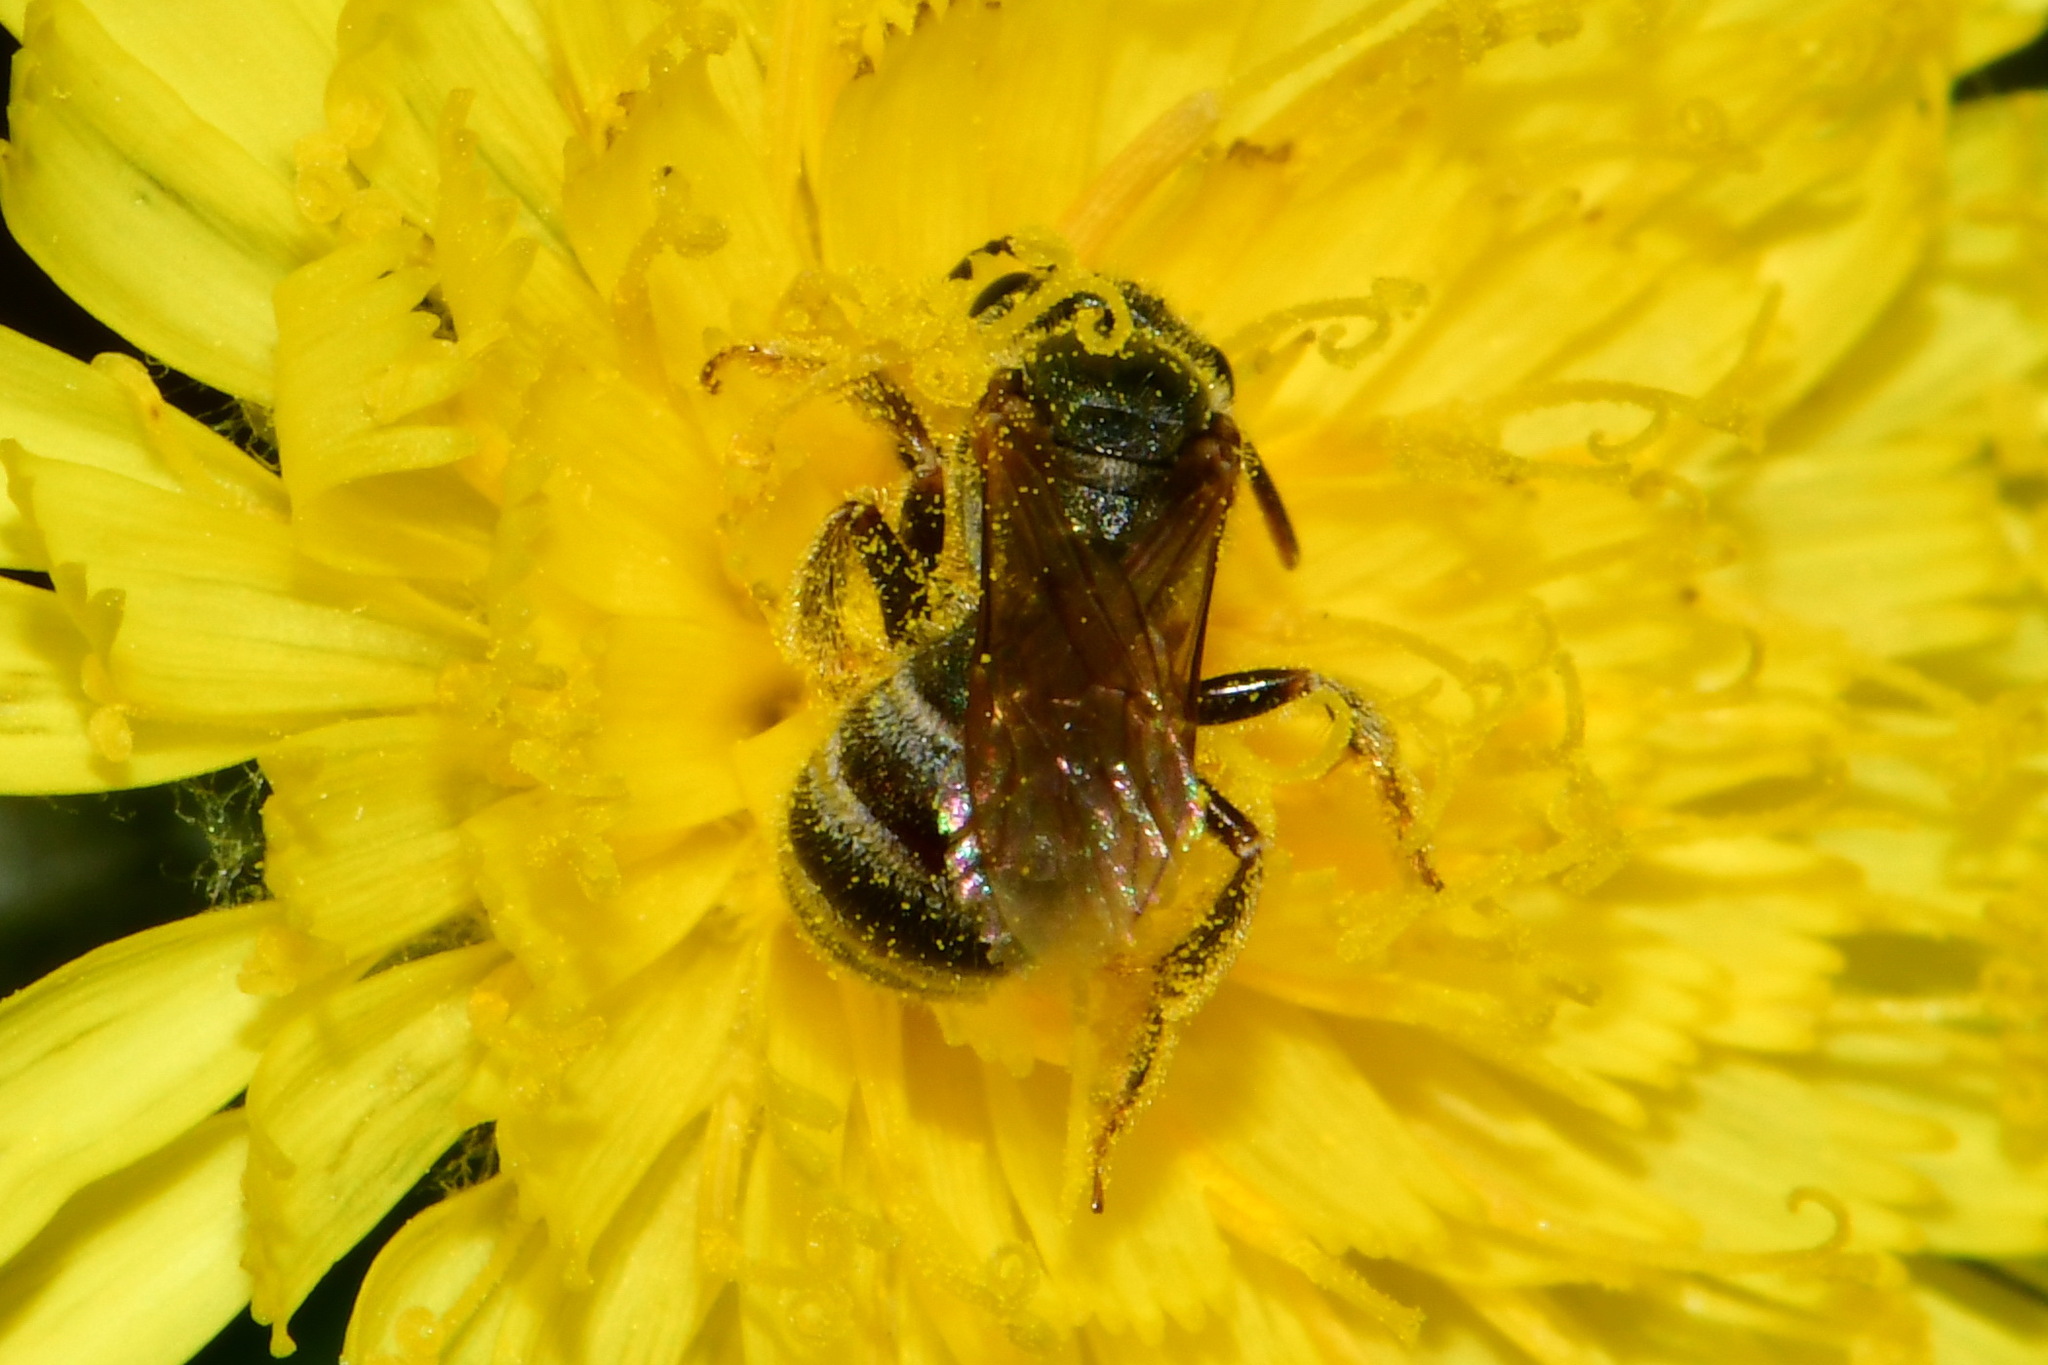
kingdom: Animalia
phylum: Arthropoda
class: Insecta
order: Hymenoptera
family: Halictidae
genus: Halictus
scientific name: Halictus tumulorum
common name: Bronze furrow bee
